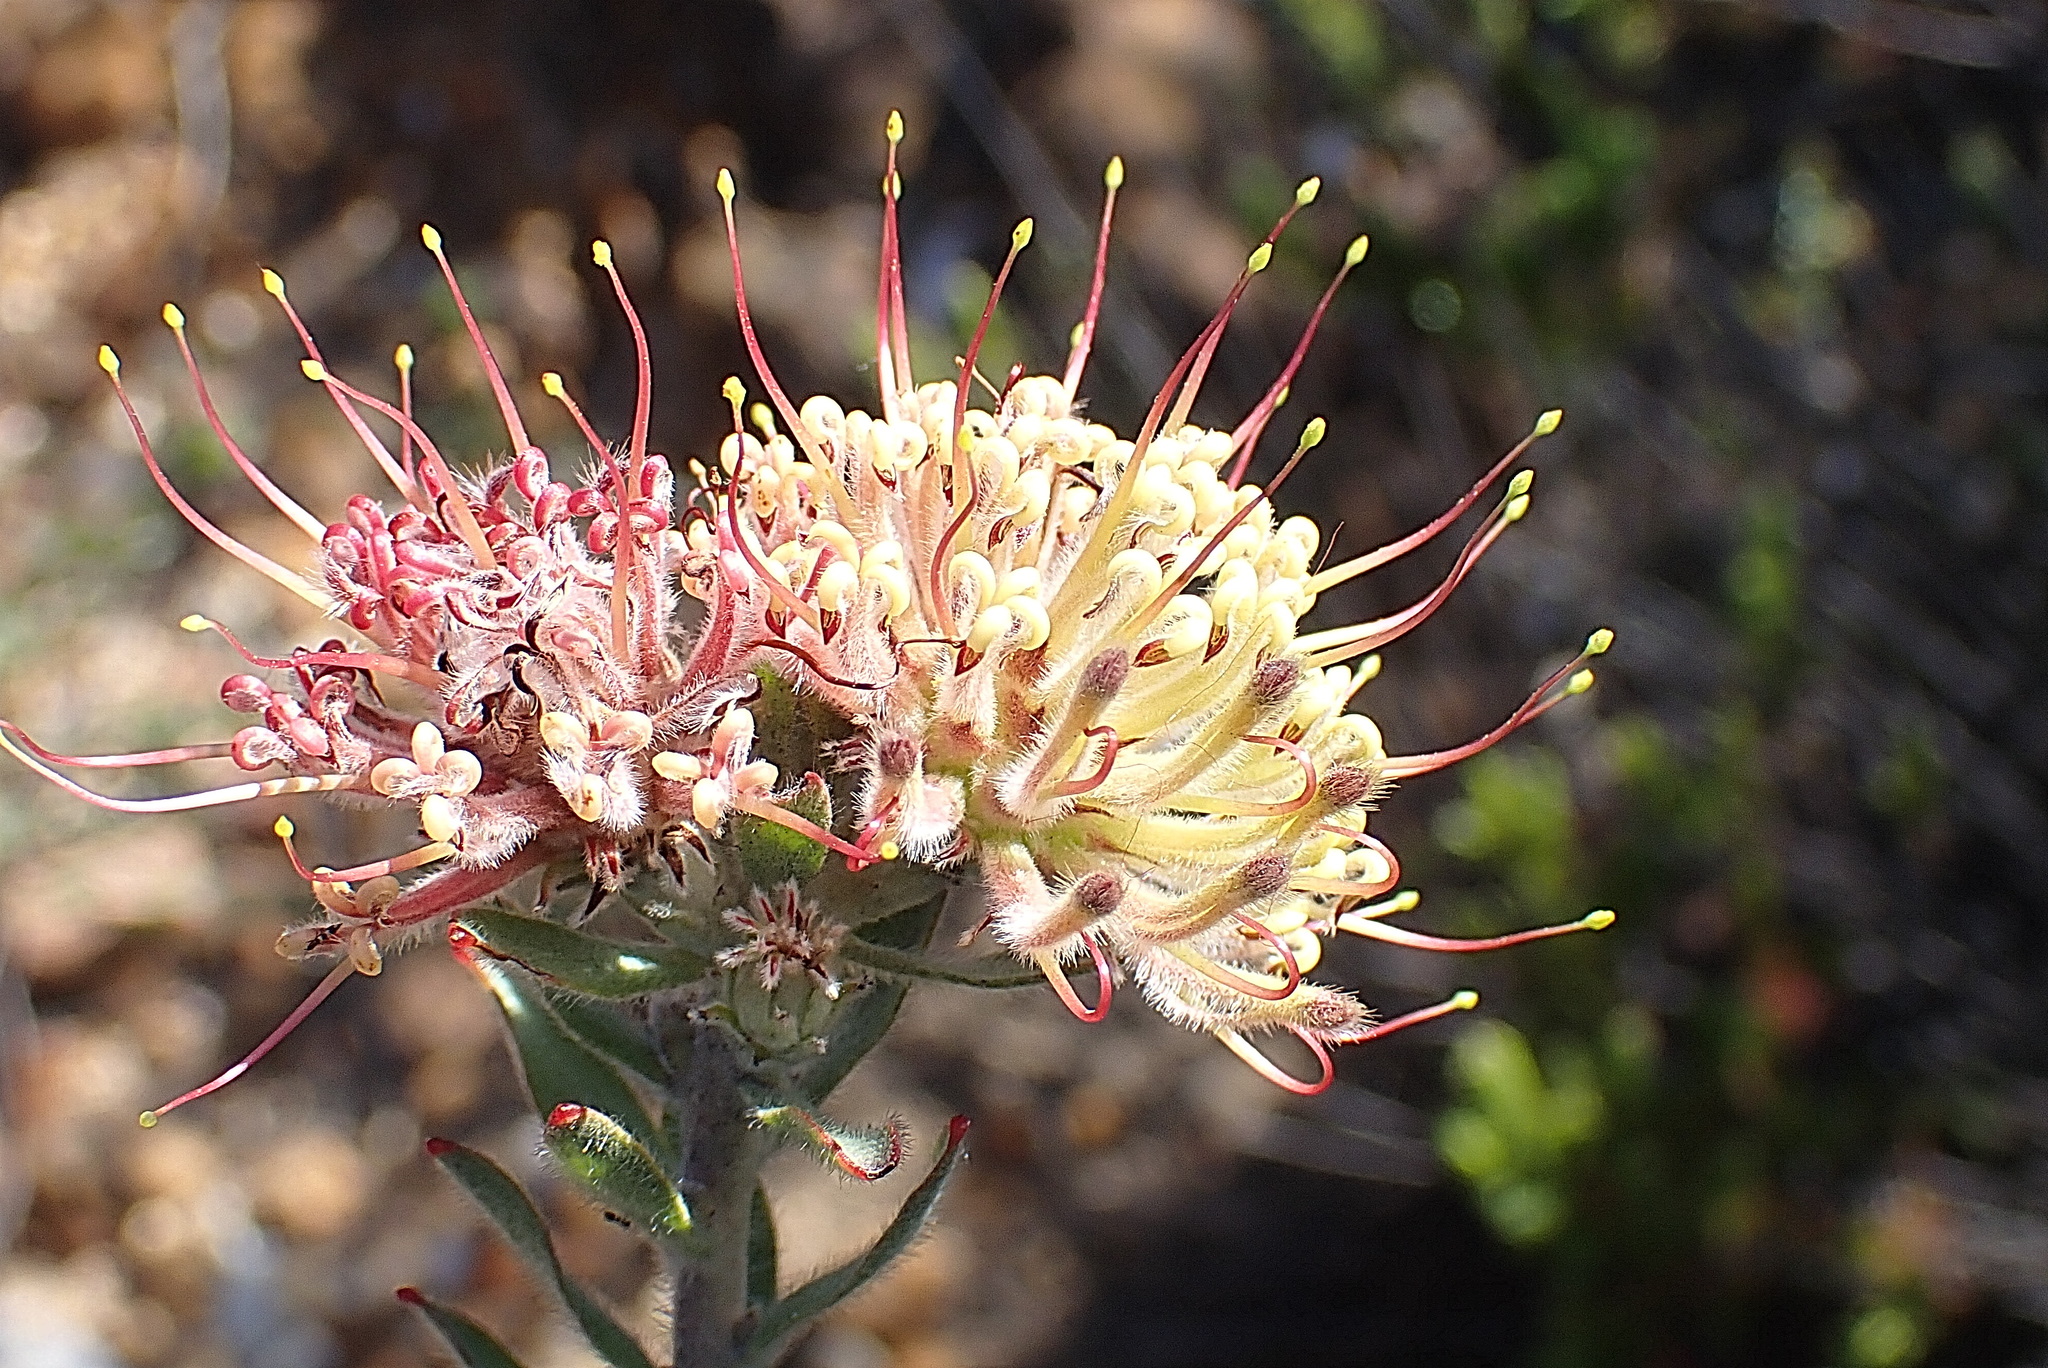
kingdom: Plantae
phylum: Tracheophyta
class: Magnoliopsida
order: Proteales
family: Proteaceae
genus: Leucospermum
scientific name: Leucospermum calligerum
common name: Arid pincushion
